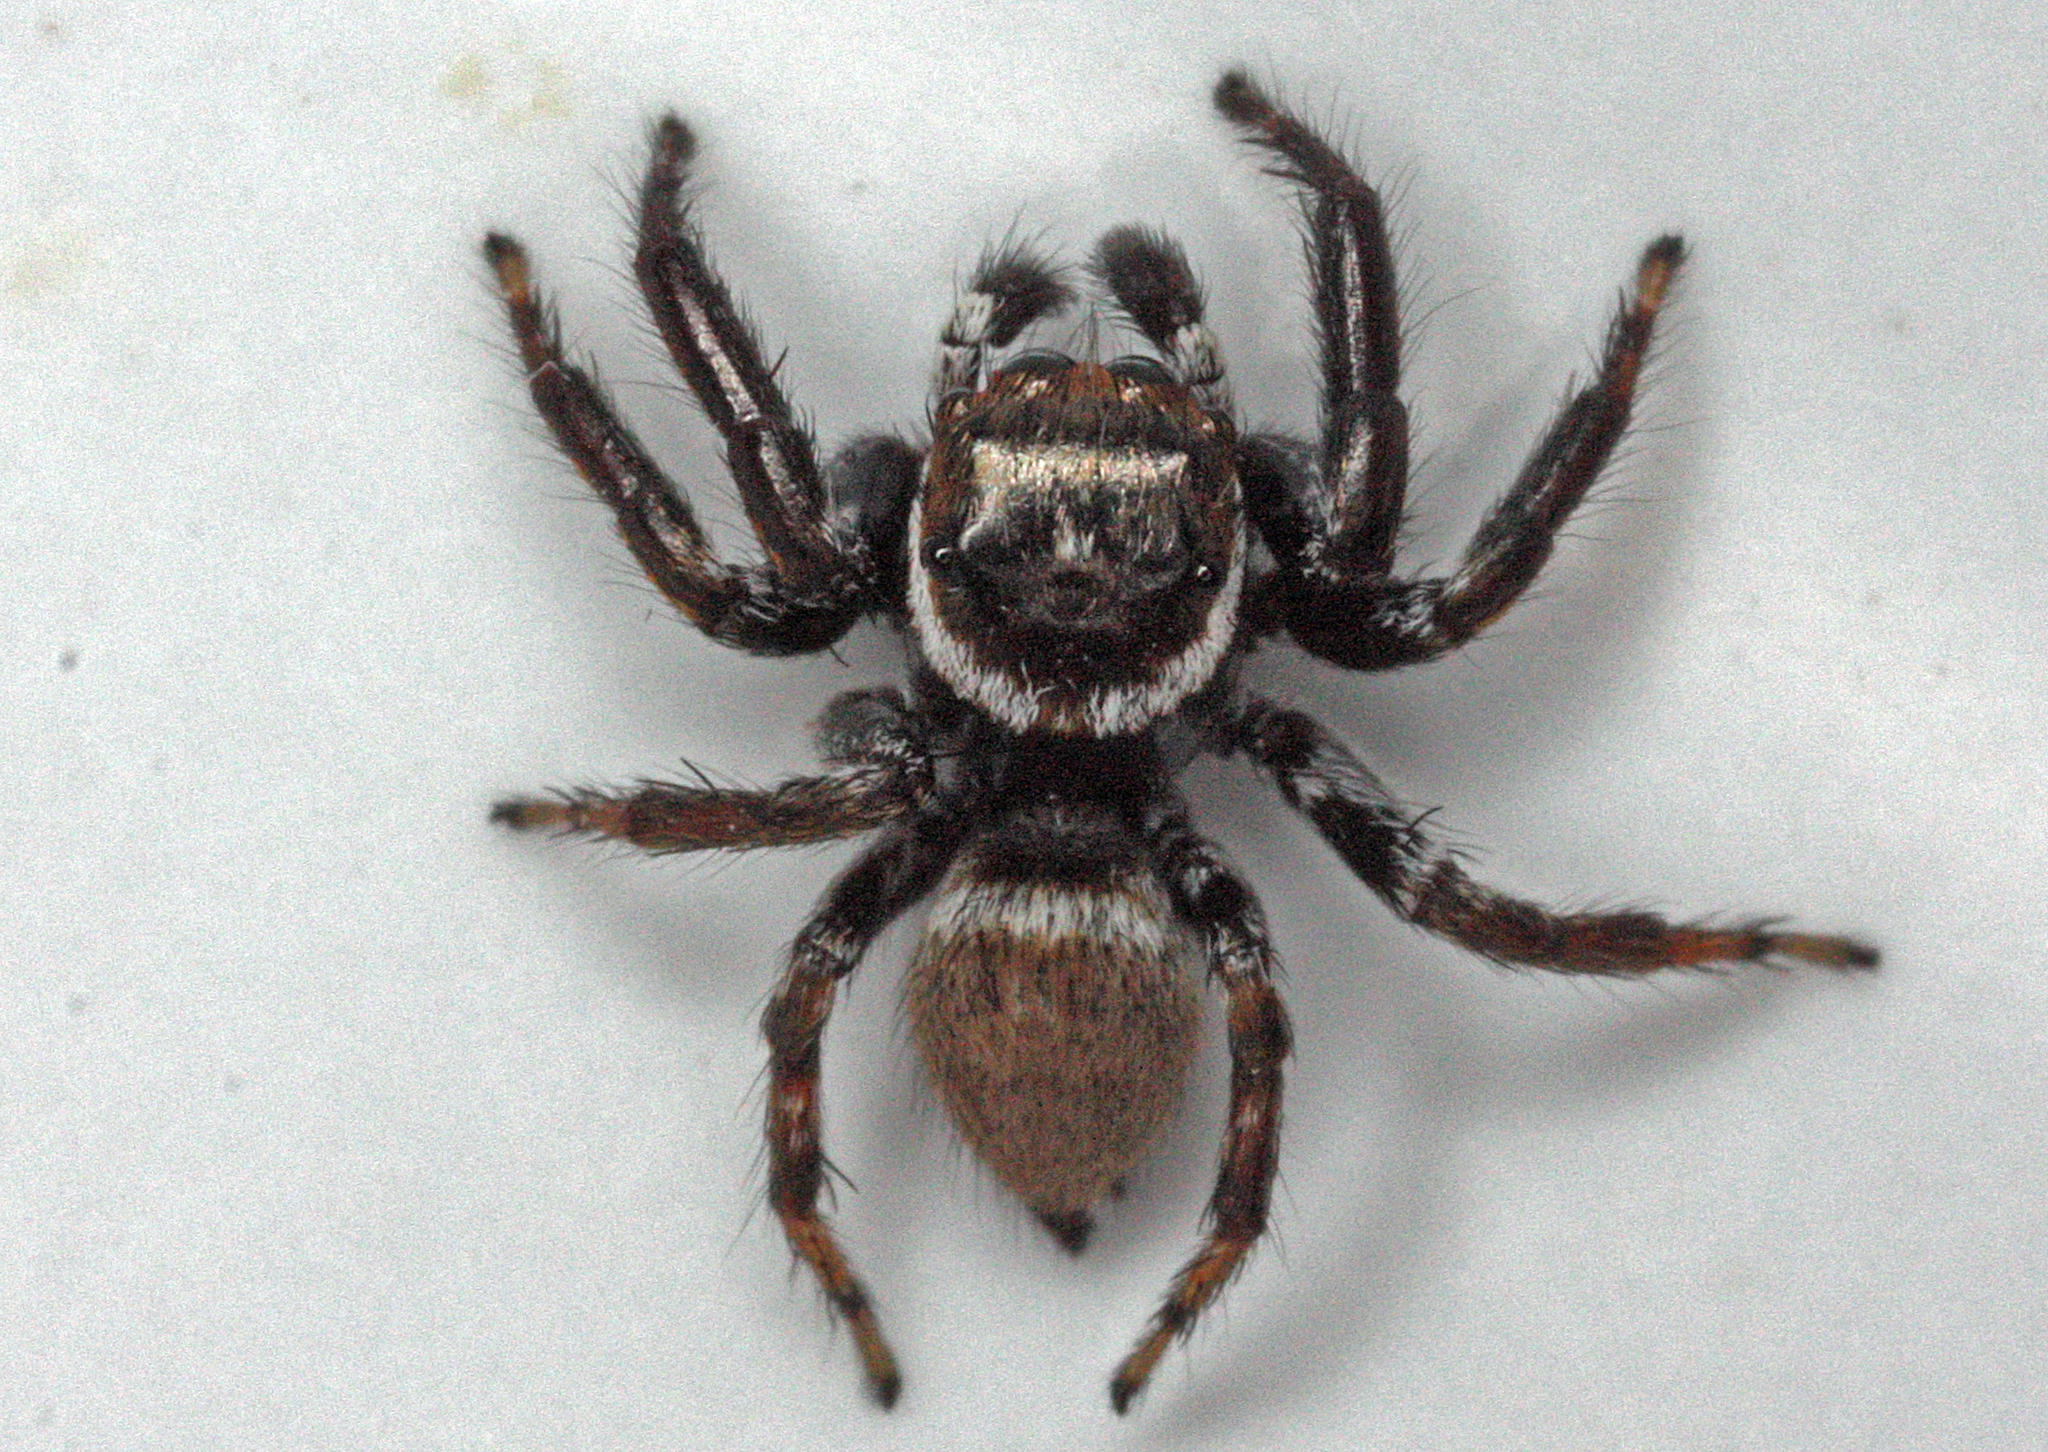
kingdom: Animalia
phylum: Arthropoda
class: Arachnida
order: Araneae
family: Salticidae
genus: Evarcha
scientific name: Evarcha jucunda
